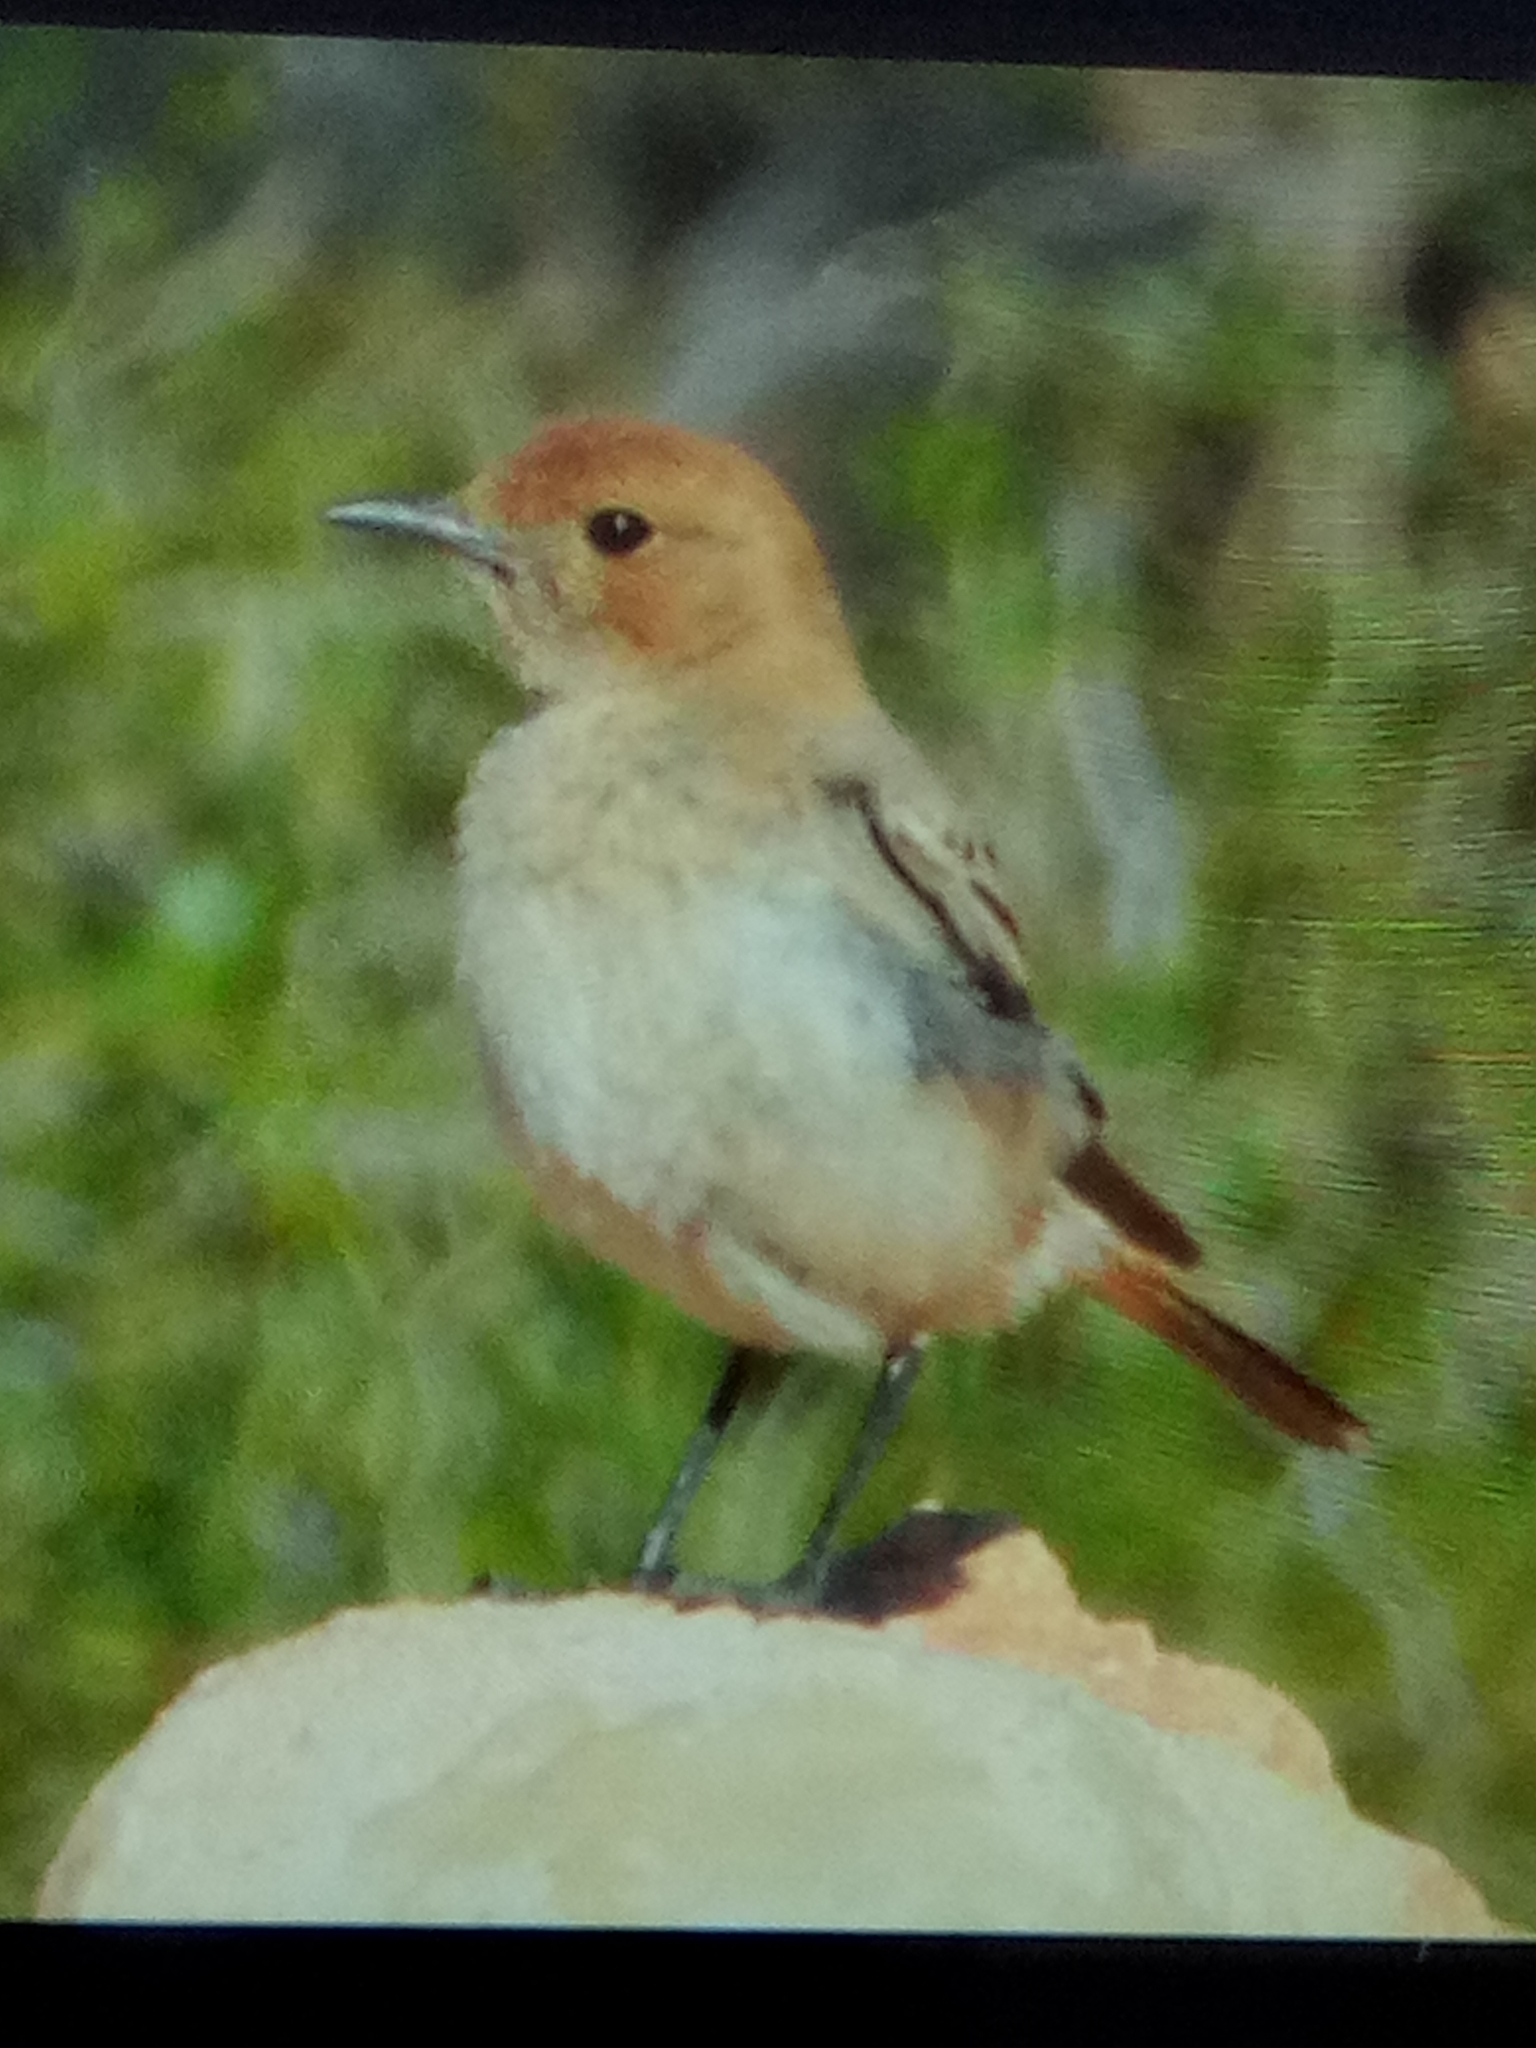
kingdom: Animalia
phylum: Chordata
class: Aves
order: Passeriformes
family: Muscicapidae
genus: Oenanthe
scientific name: Oenanthe moesta
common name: Red-rumped wheatear
